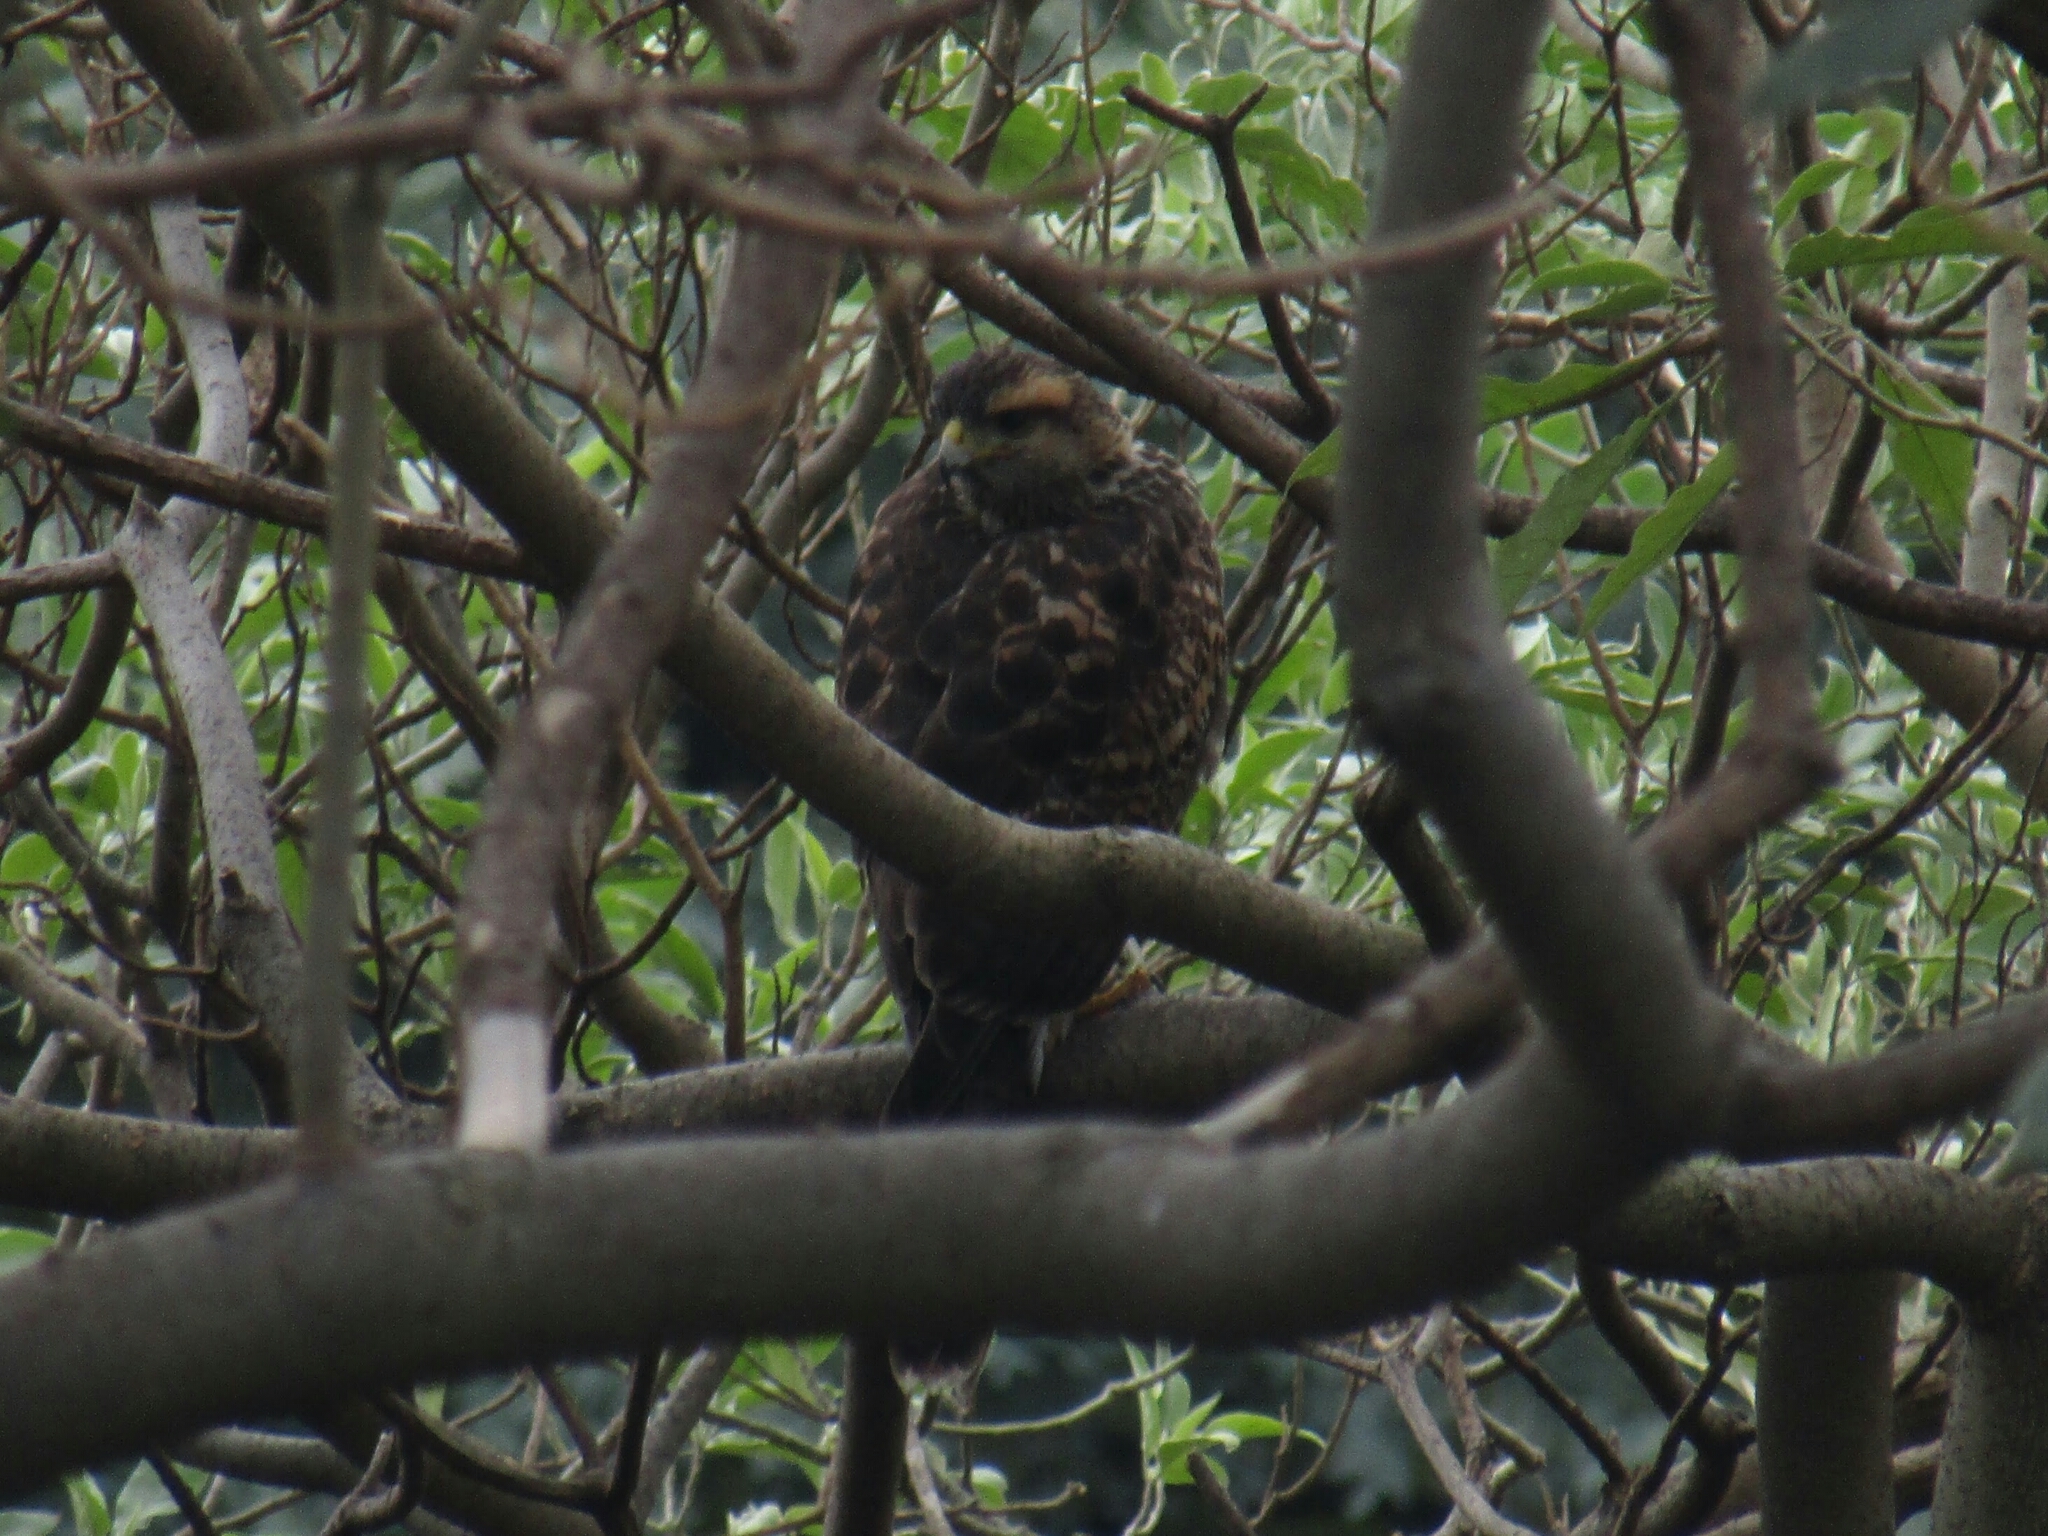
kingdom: Animalia
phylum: Chordata
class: Aves
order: Accipitriformes
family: Accipitridae
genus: Parabuteo
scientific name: Parabuteo unicinctus
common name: Harris's hawk
